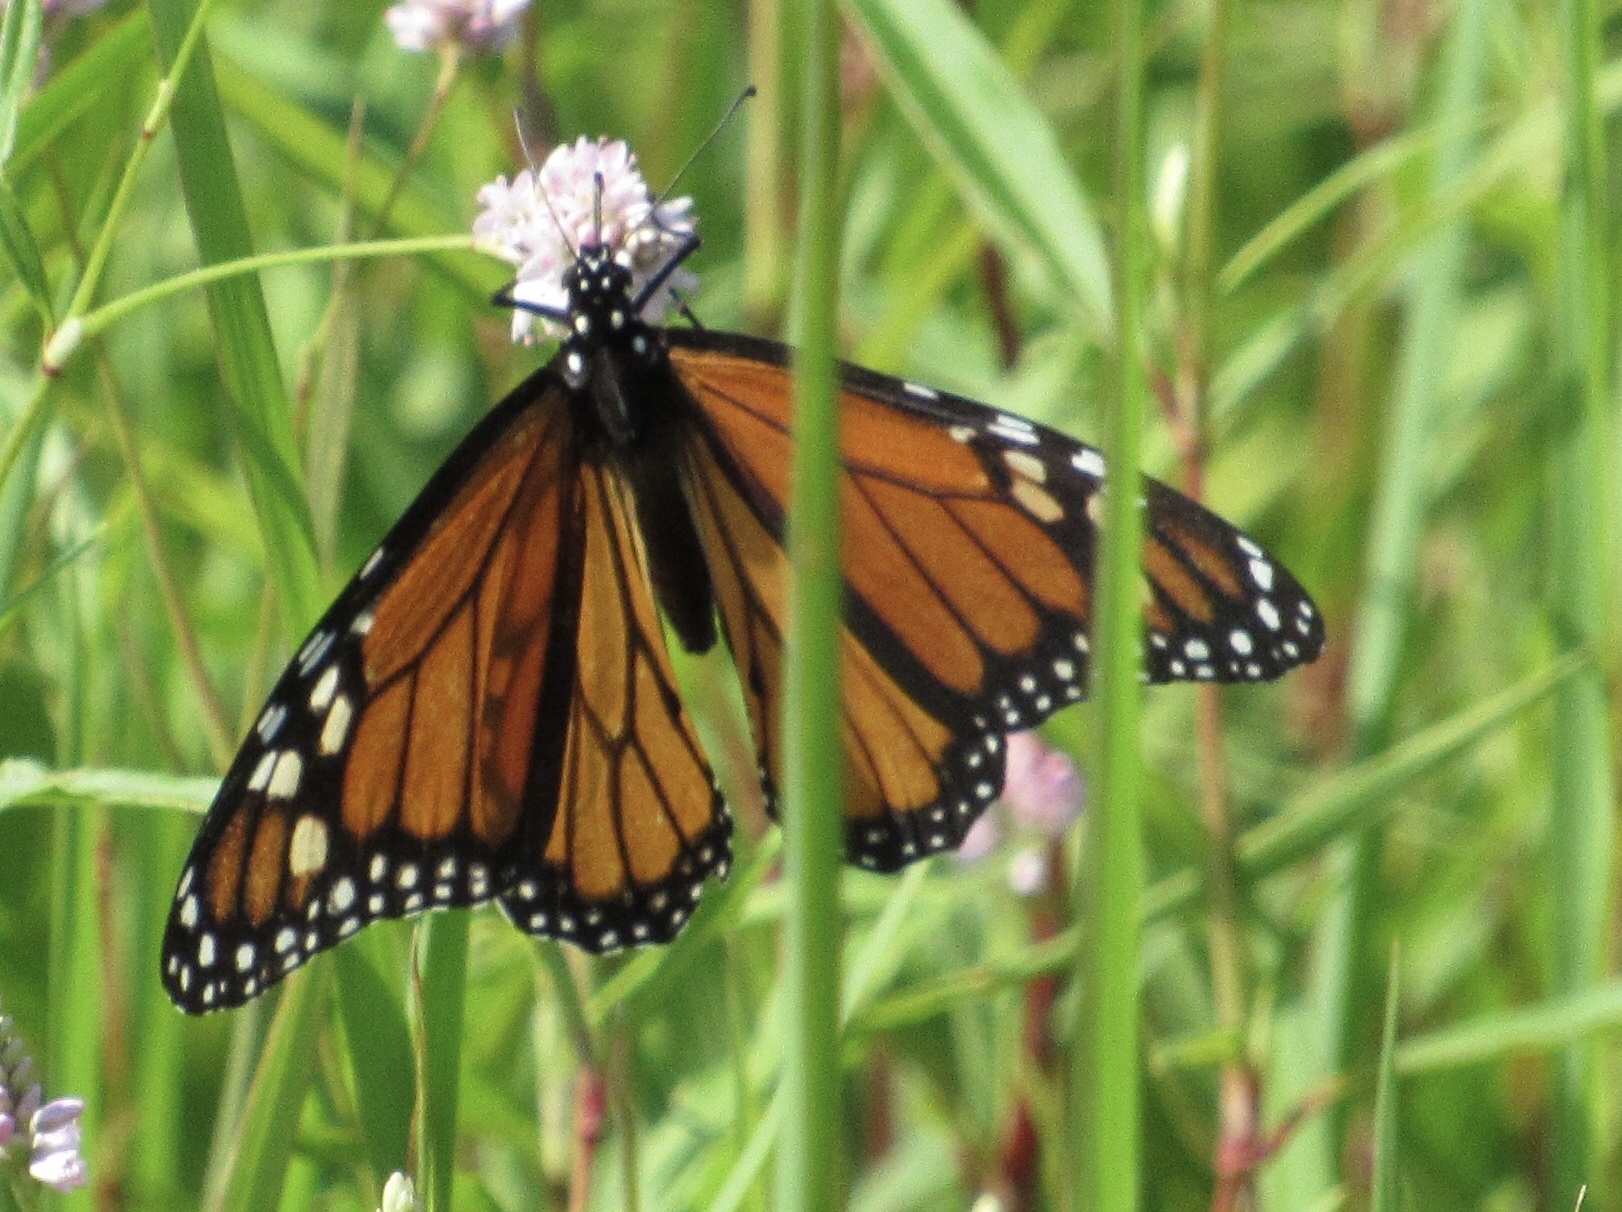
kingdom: Animalia
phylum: Arthropoda
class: Insecta
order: Lepidoptera
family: Nymphalidae
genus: Danaus
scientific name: Danaus plexippus
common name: Monarch
